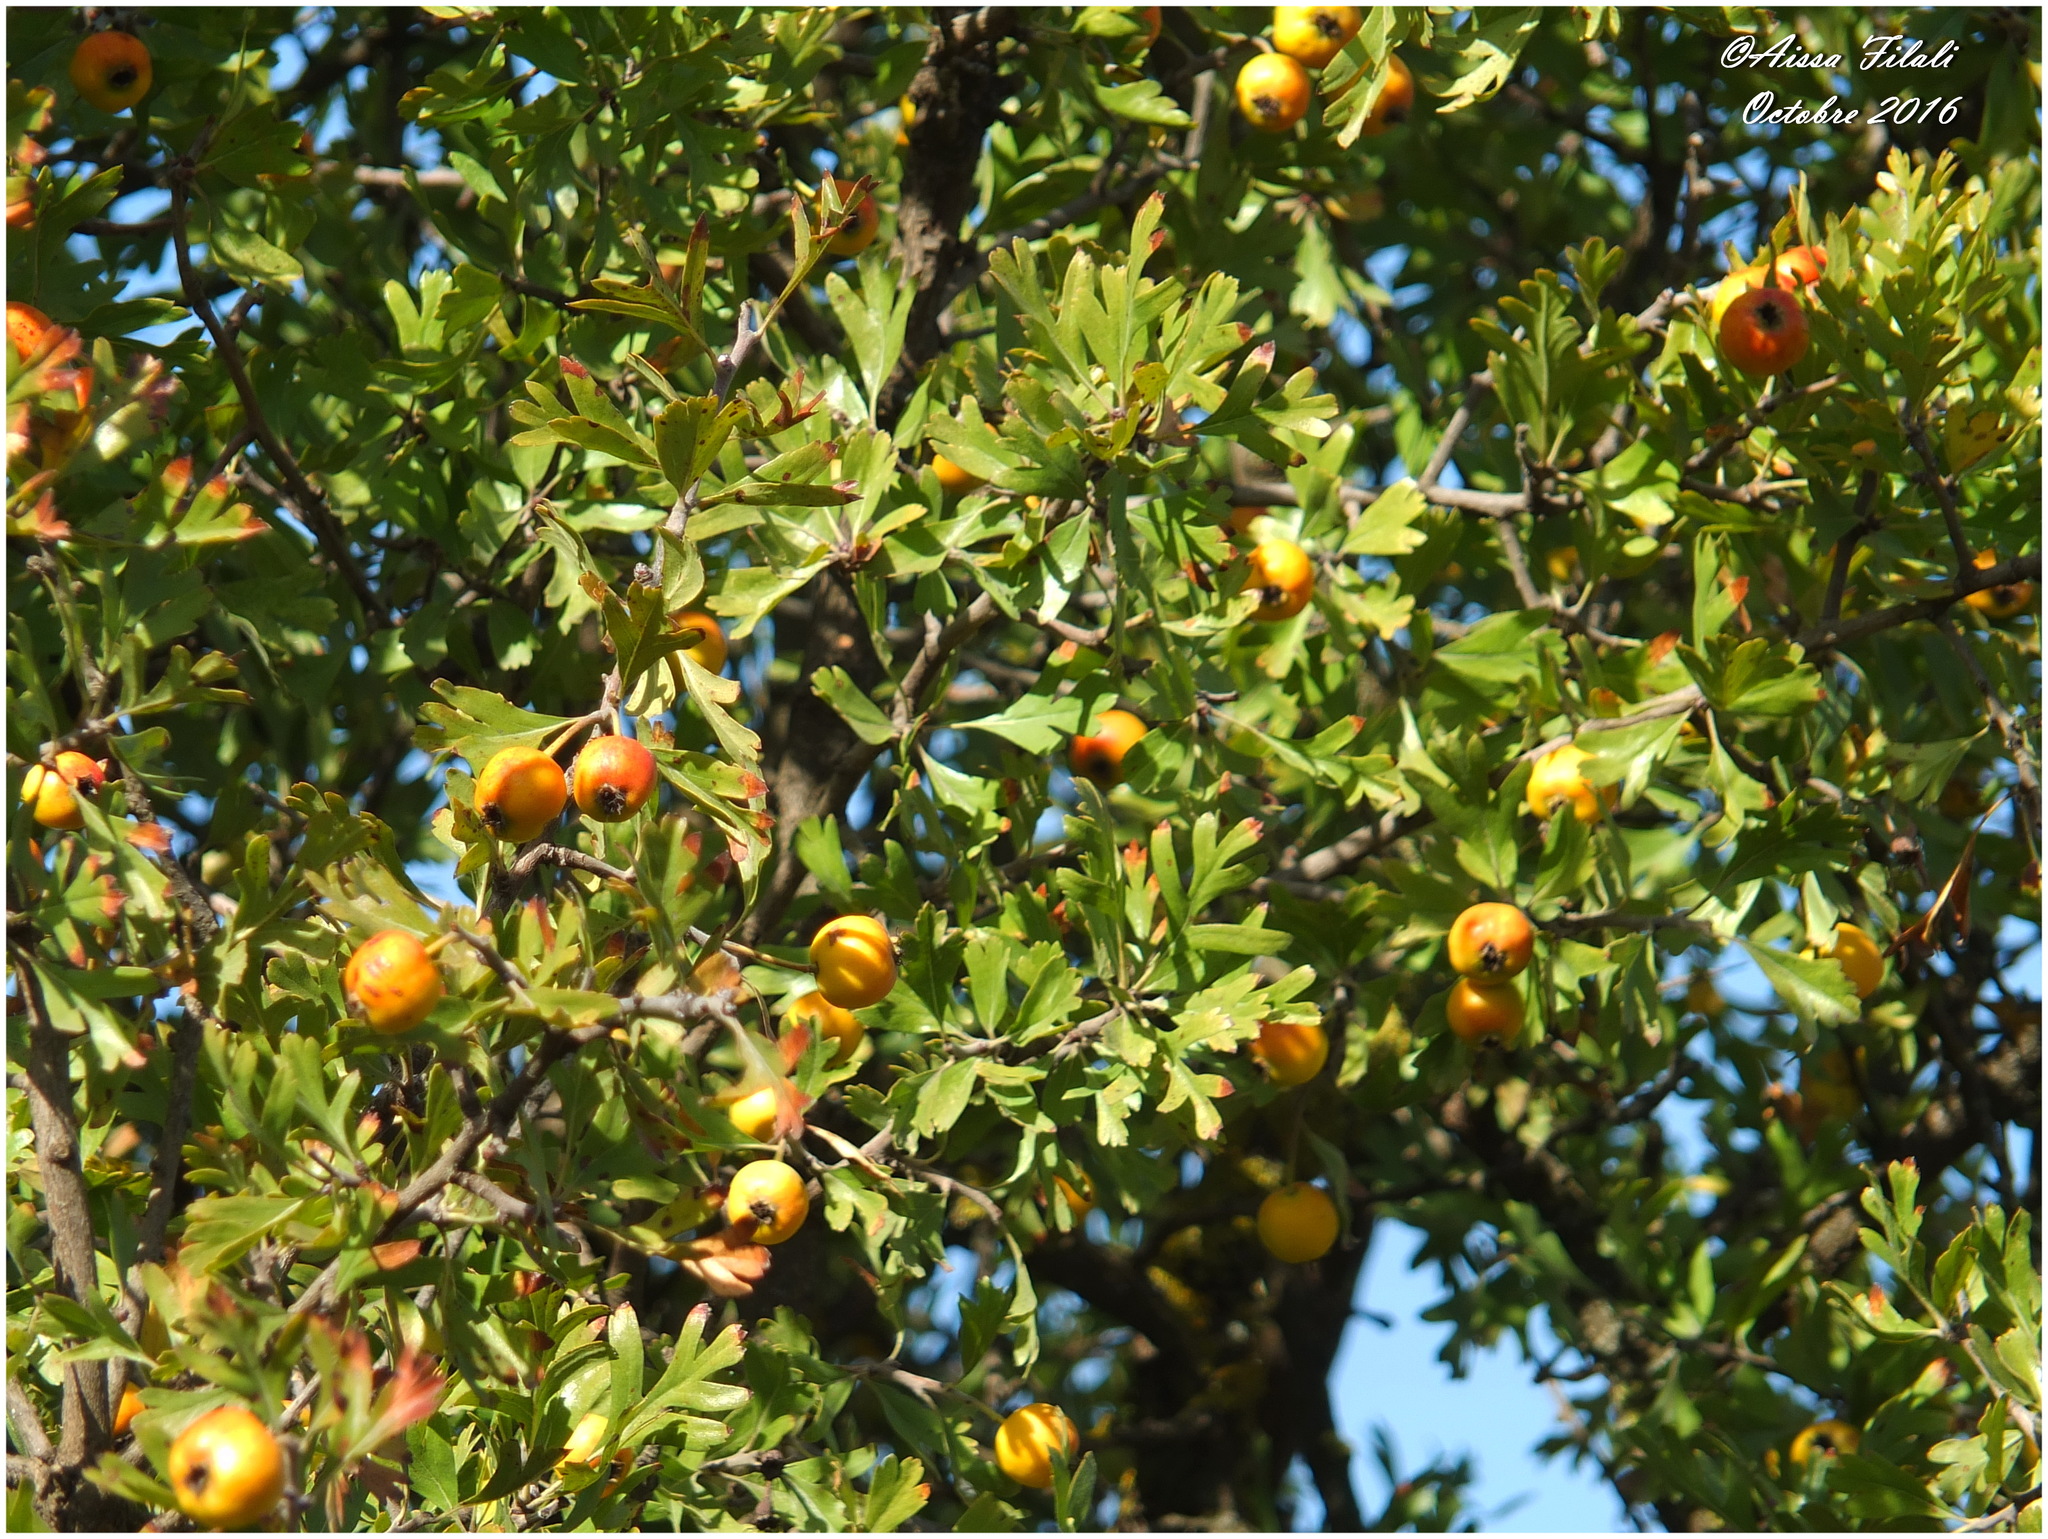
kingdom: Plantae
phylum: Tracheophyta
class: Magnoliopsida
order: Rosales
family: Rosaceae
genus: Crataegus
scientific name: Crataegus azarolus
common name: Azarole
